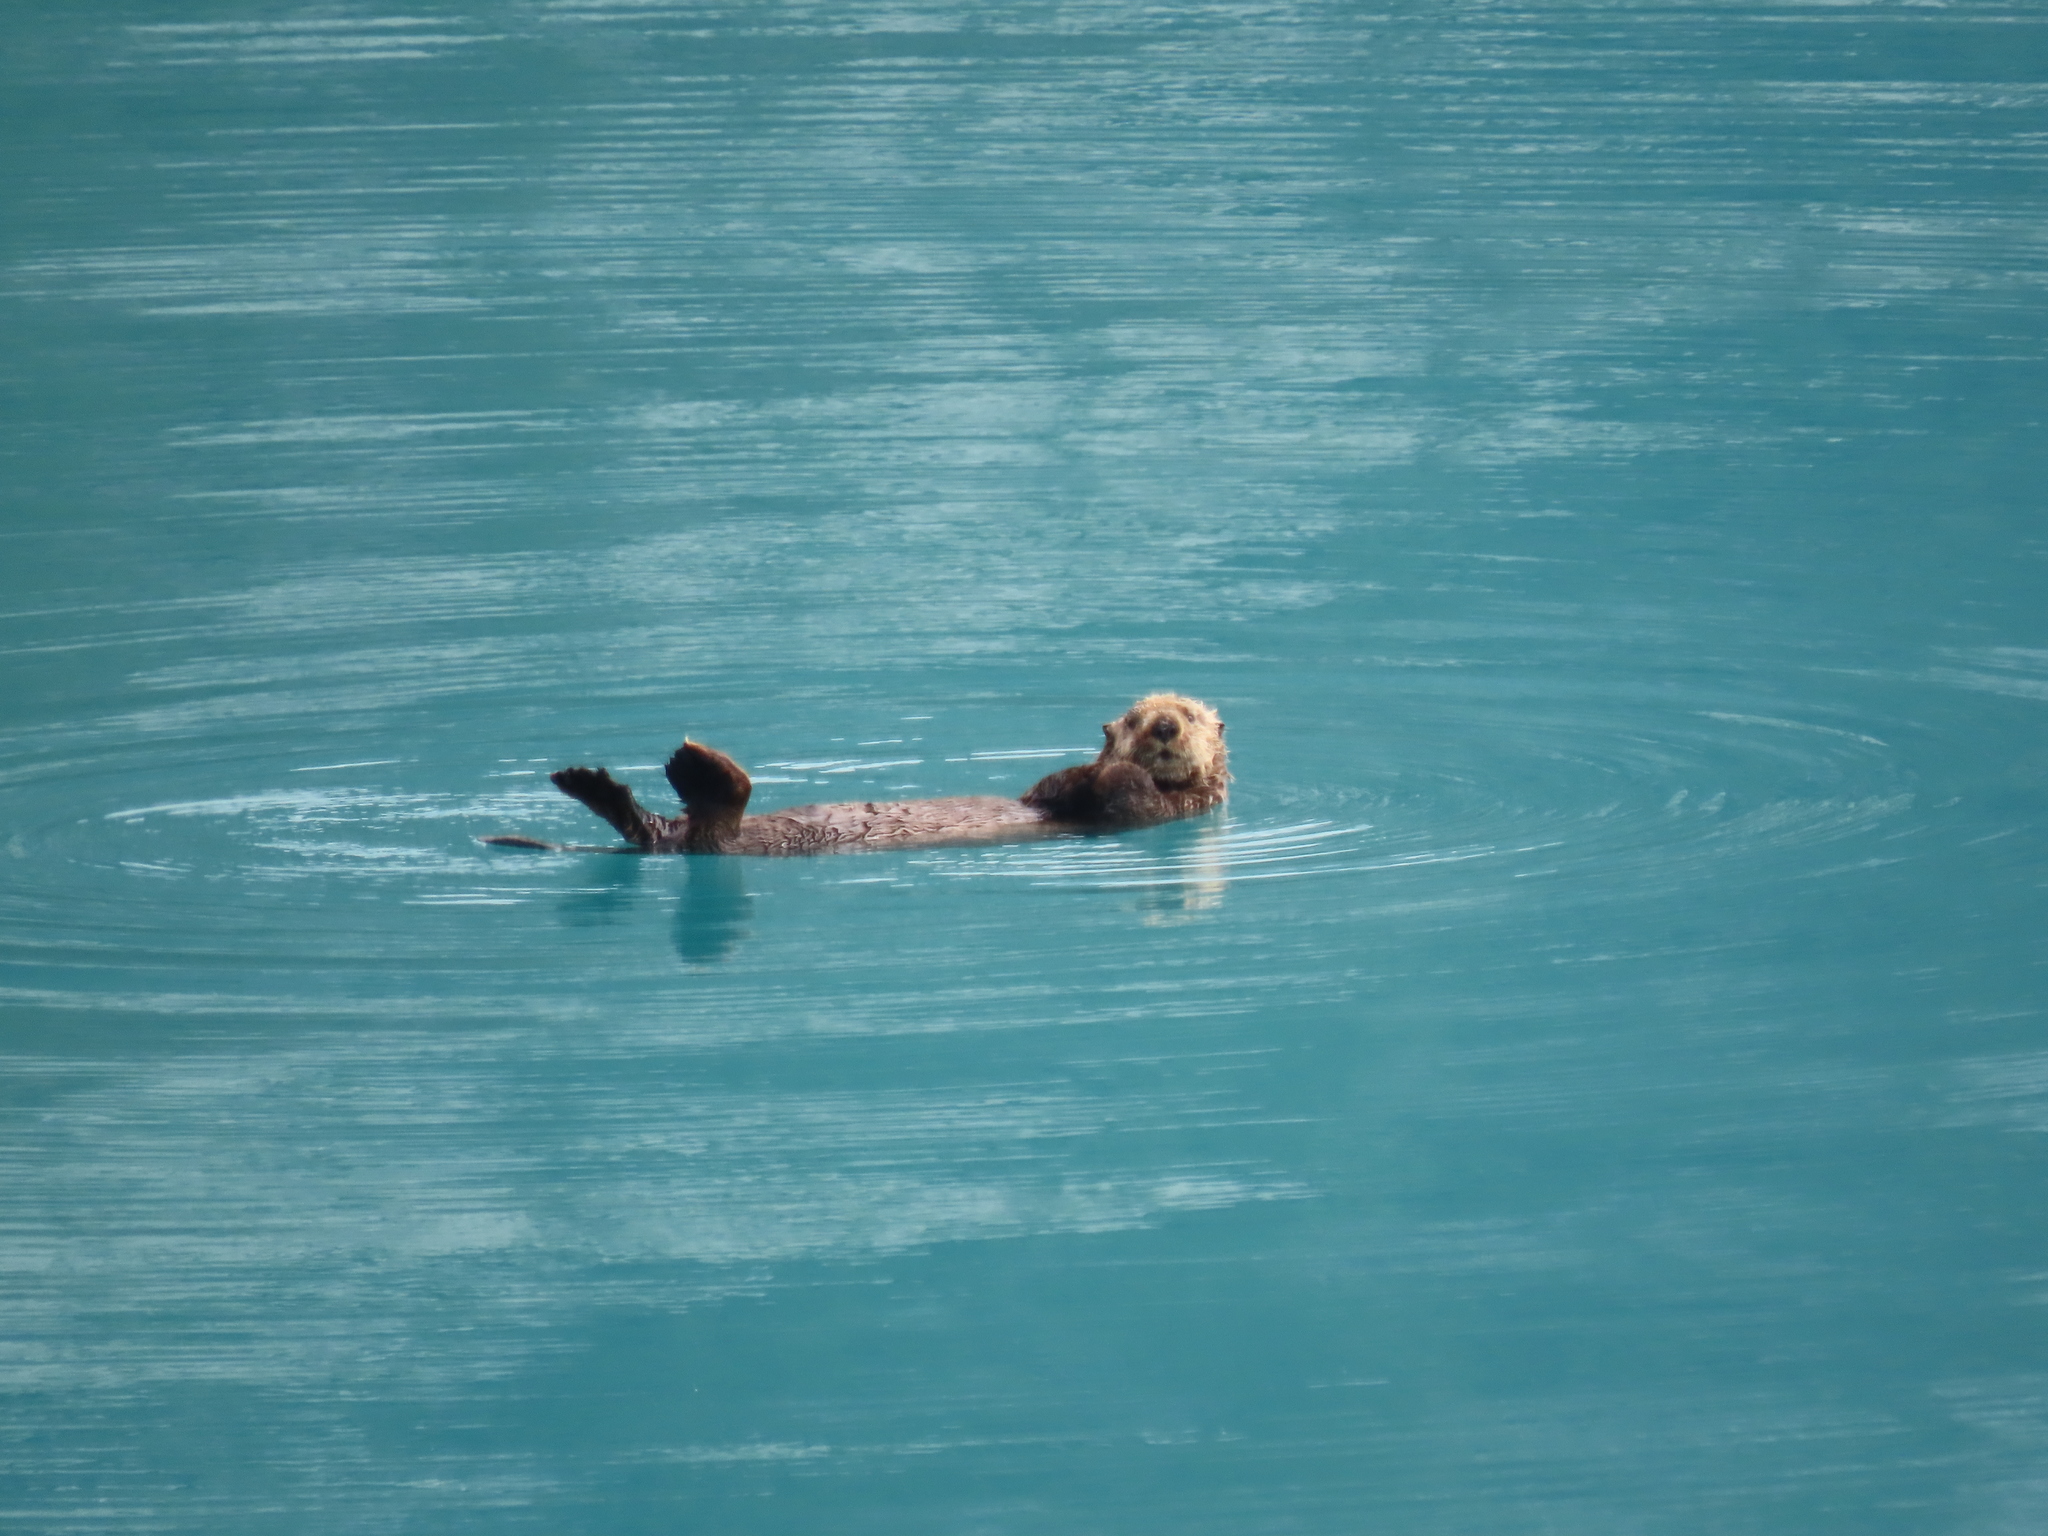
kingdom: Animalia
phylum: Chordata
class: Mammalia
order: Carnivora
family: Mustelidae
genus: Enhydra
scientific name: Enhydra lutris
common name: Sea otter
